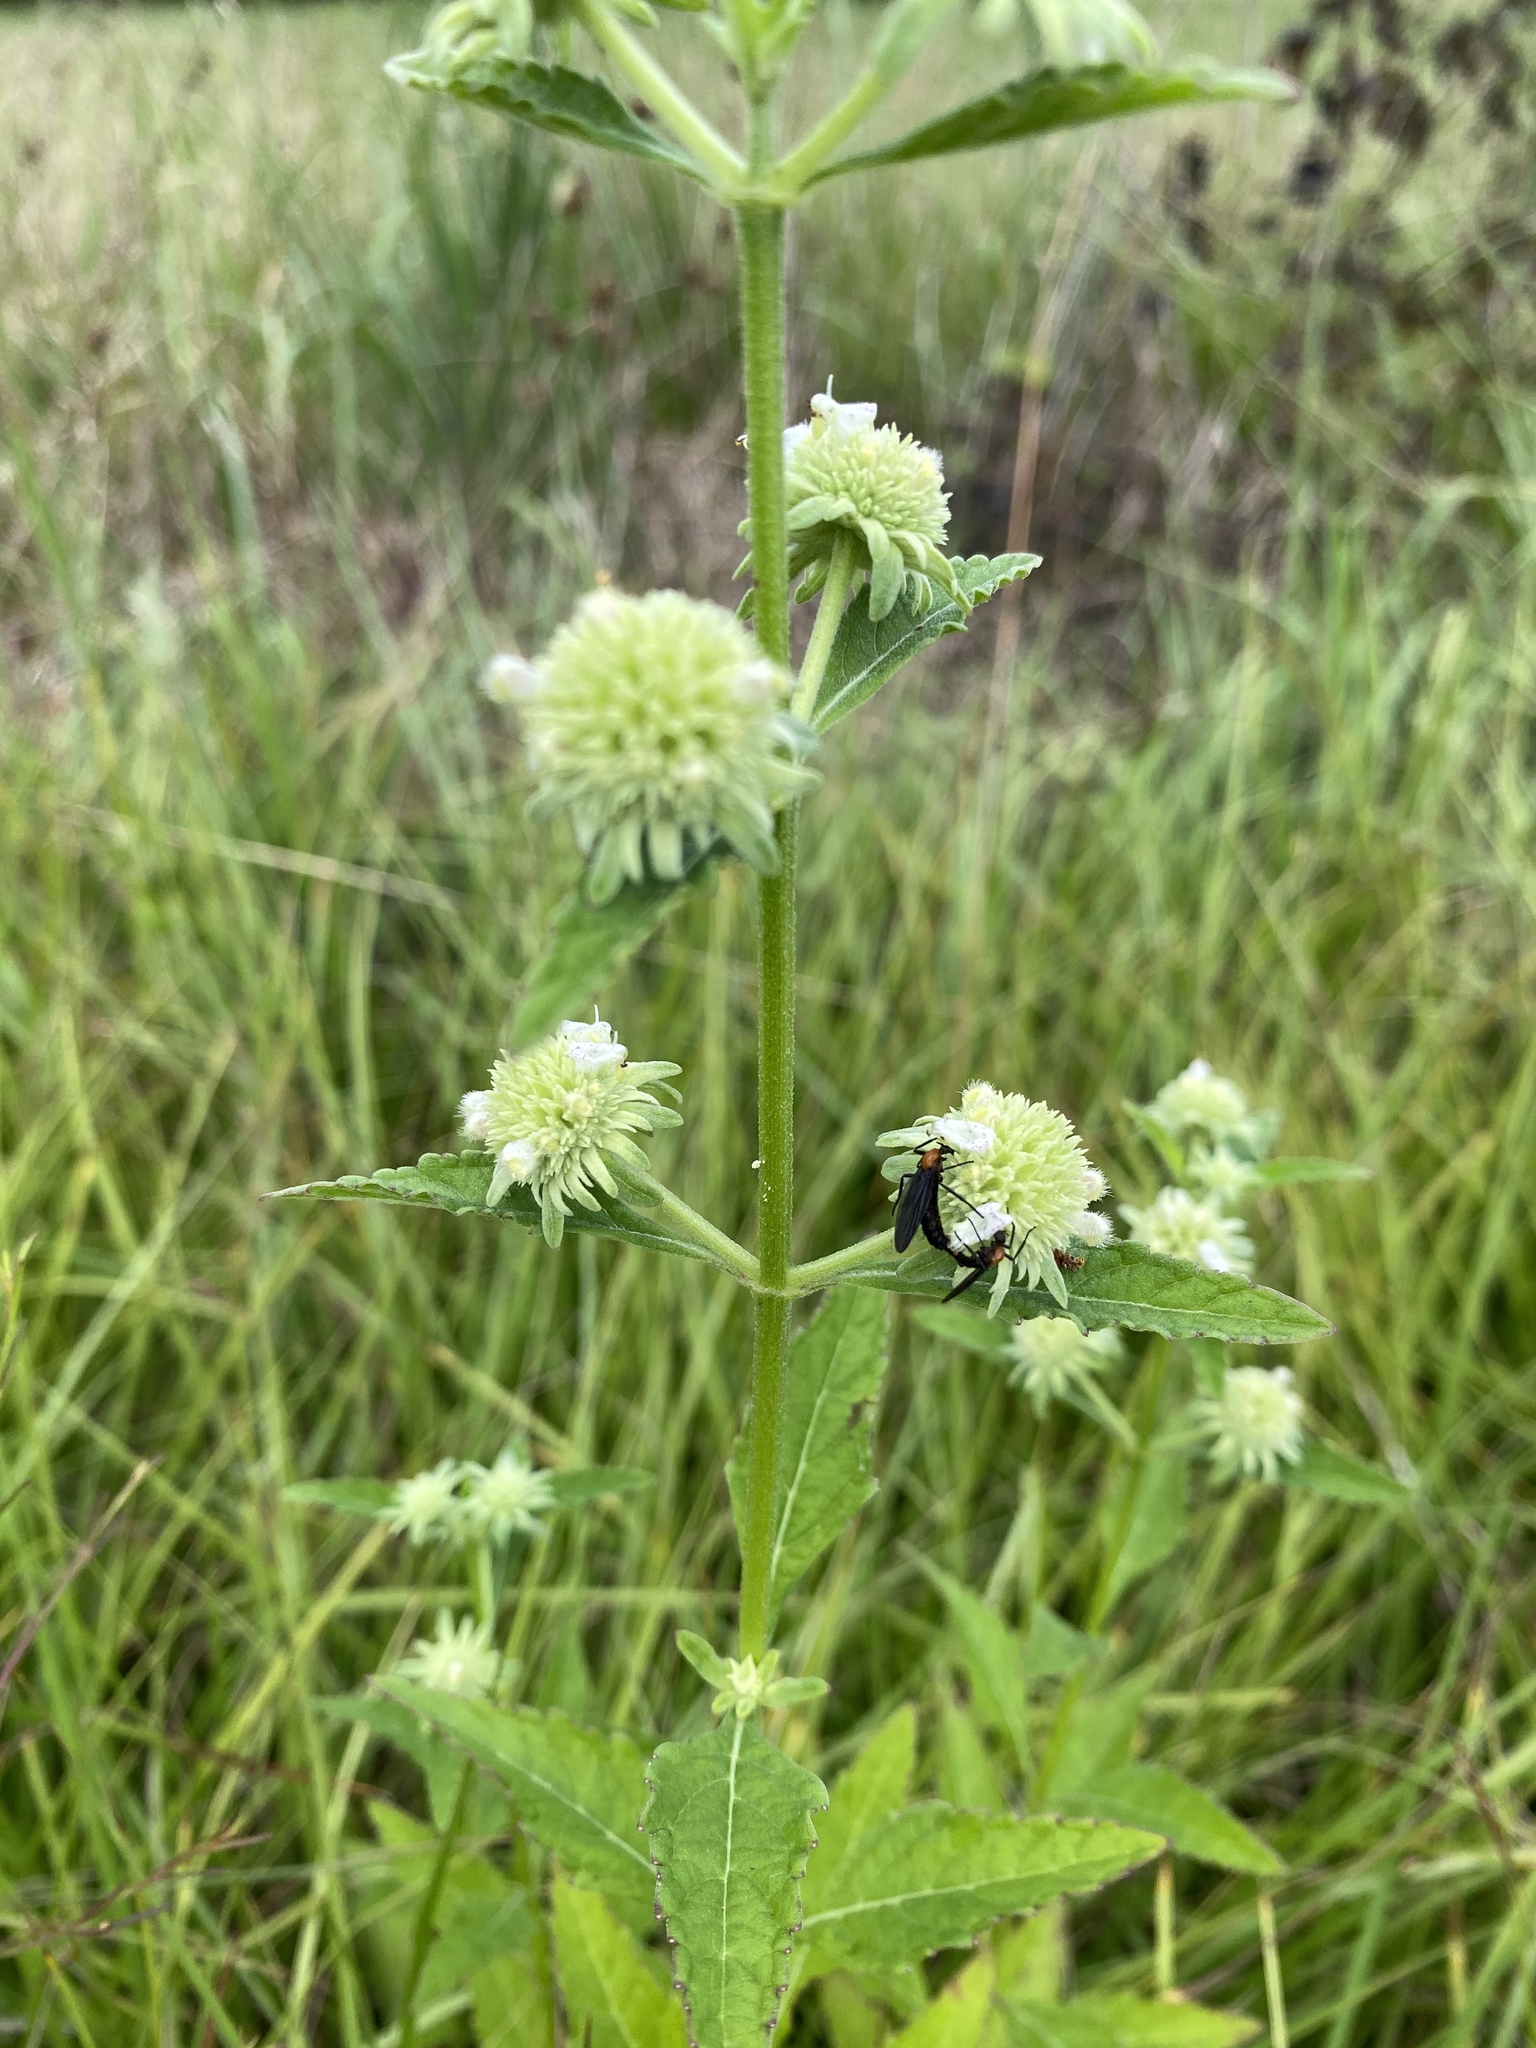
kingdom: Plantae
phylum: Tracheophyta
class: Magnoliopsida
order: Lamiales
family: Lamiaceae
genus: Hyptis
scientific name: Hyptis alata
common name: Cluster bush-mint
